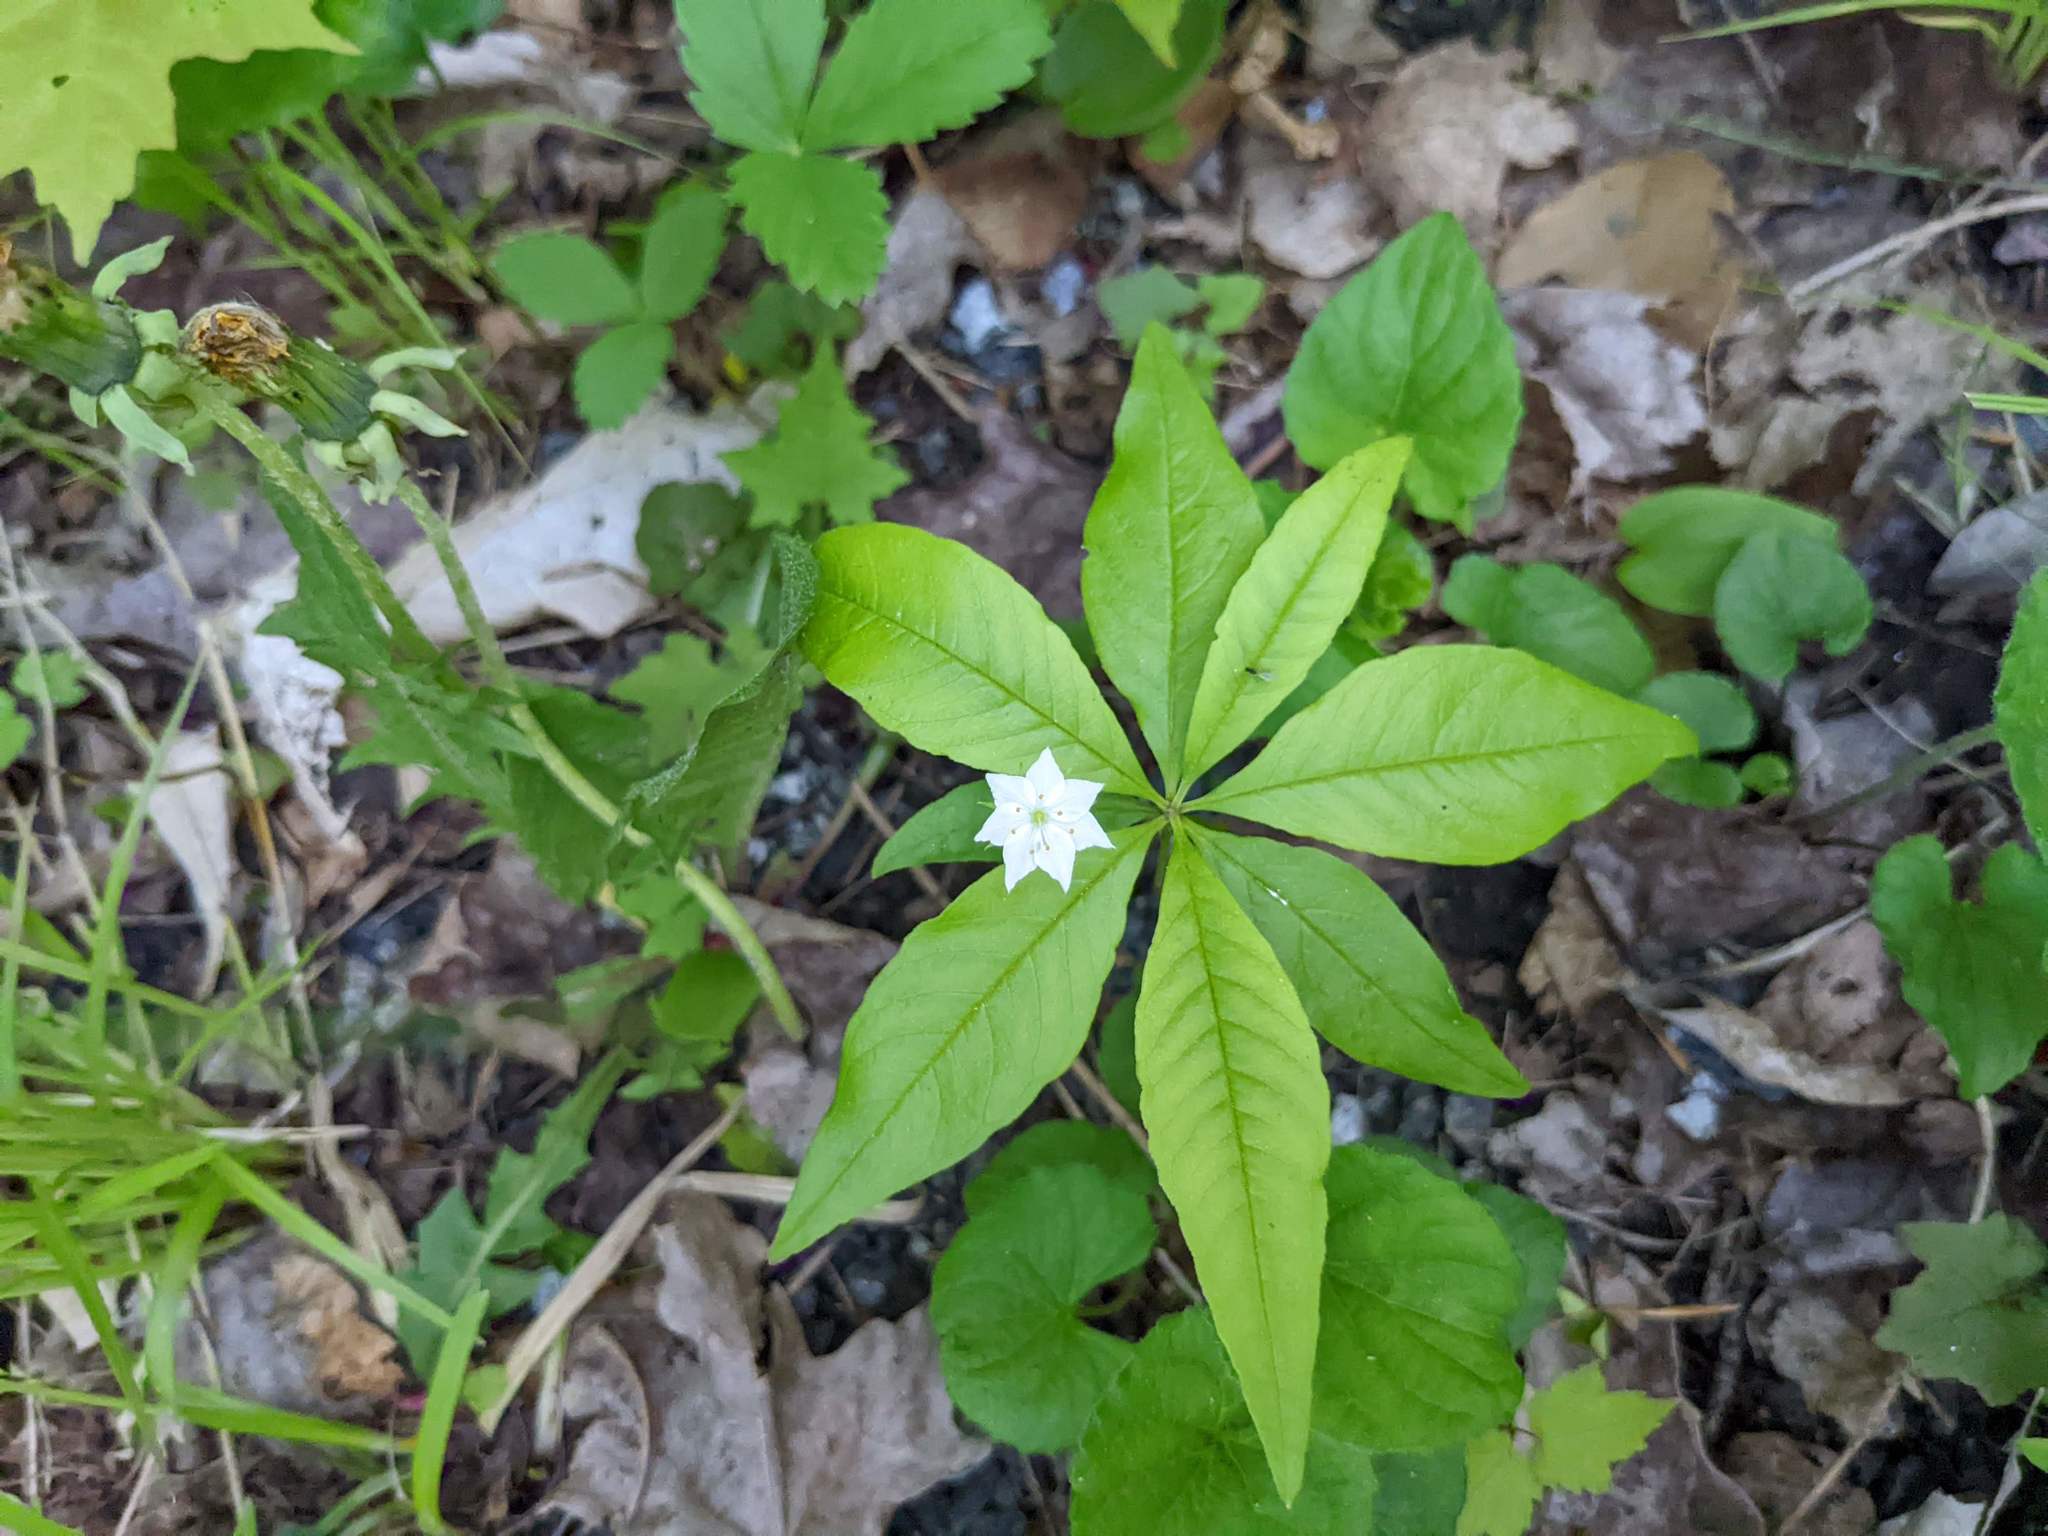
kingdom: Plantae
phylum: Tracheophyta
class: Magnoliopsida
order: Ericales
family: Primulaceae
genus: Lysimachia
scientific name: Lysimachia borealis
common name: American starflower
